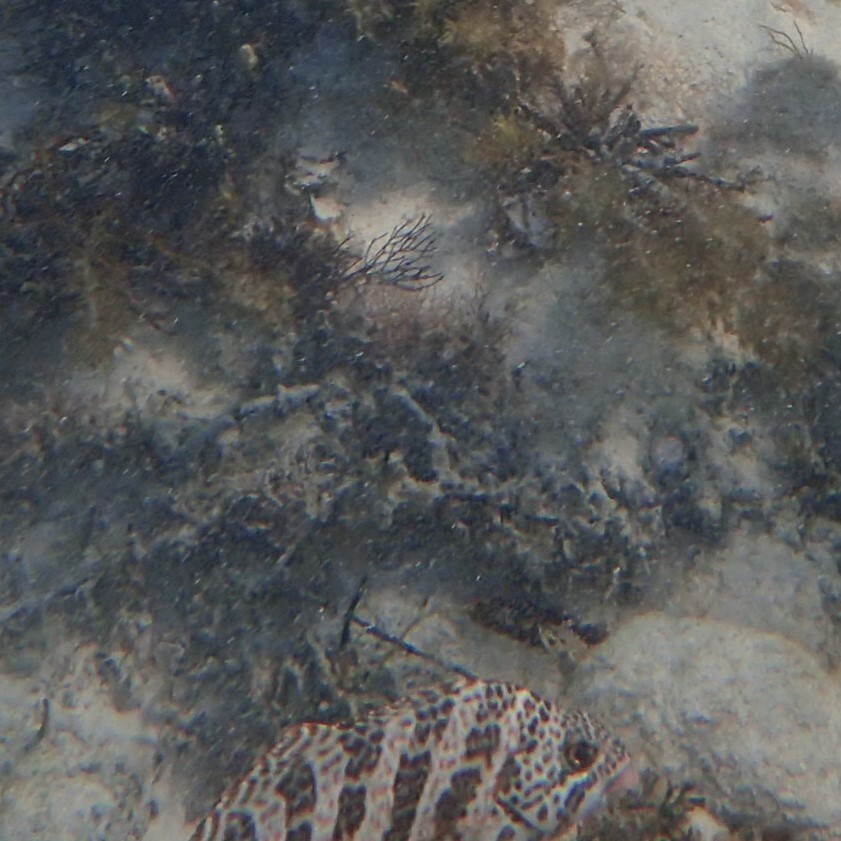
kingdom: Animalia
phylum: Chordata
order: Perciformes
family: Cheilodactylidae
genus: Cheilodactylus
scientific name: Cheilodactylus rubrolabiatus
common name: Redlip morwong
